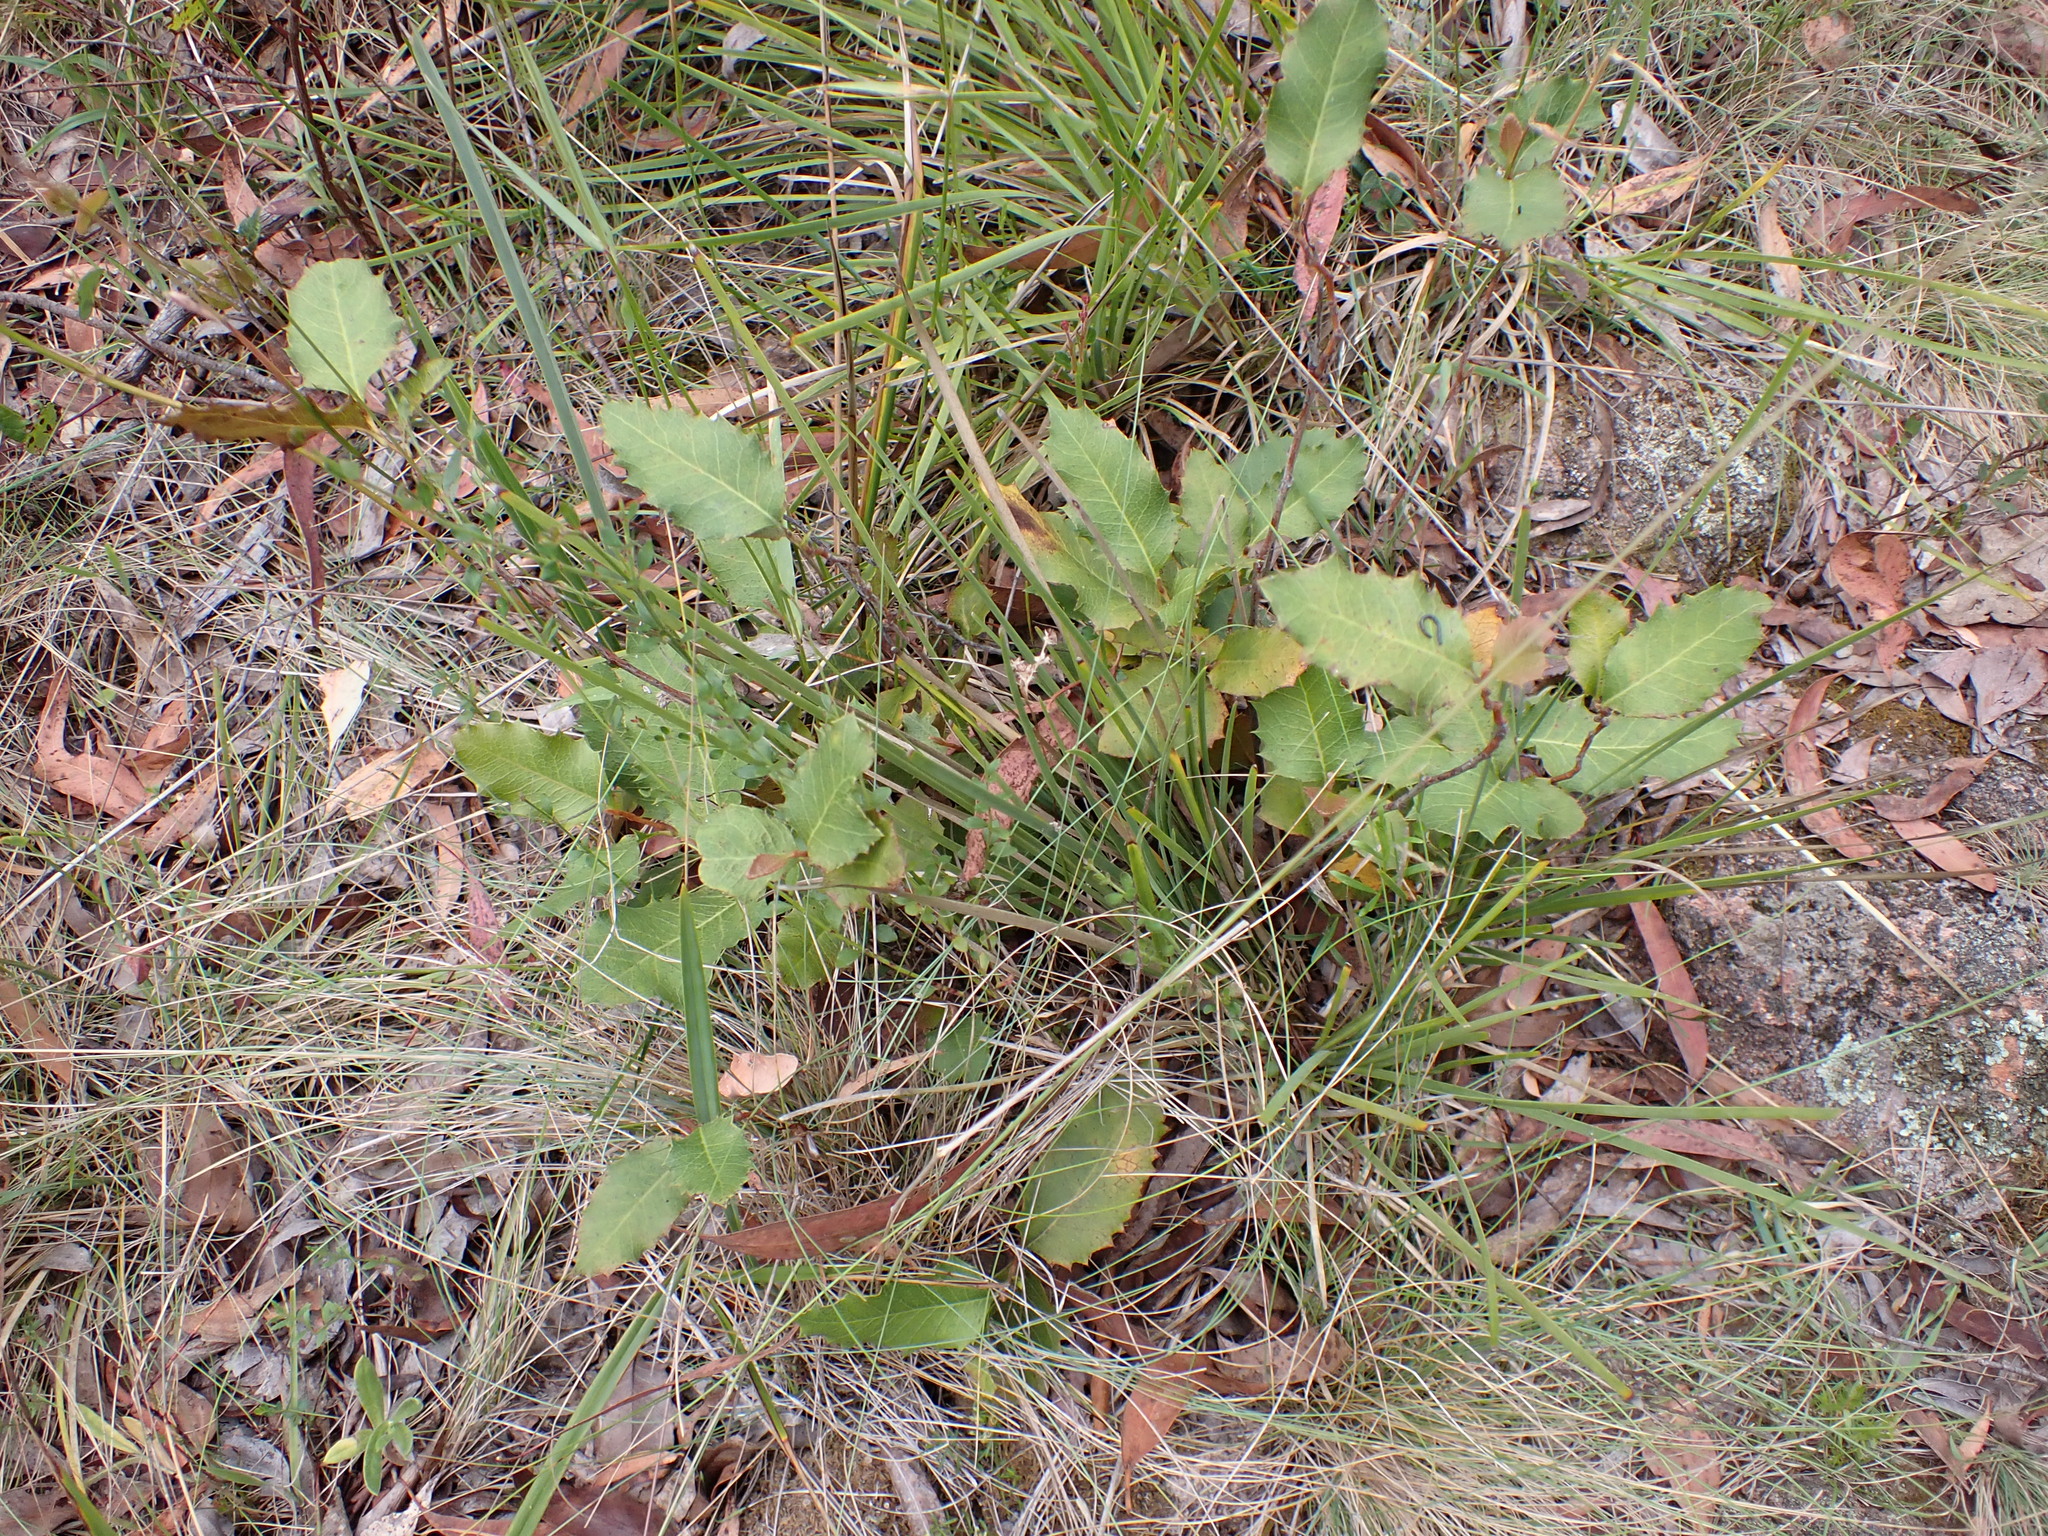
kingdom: Plantae
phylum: Tracheophyta
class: Magnoliopsida
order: Proteales
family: Proteaceae
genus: Lomatia
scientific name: Lomatia ilicifolia
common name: Native-holly
